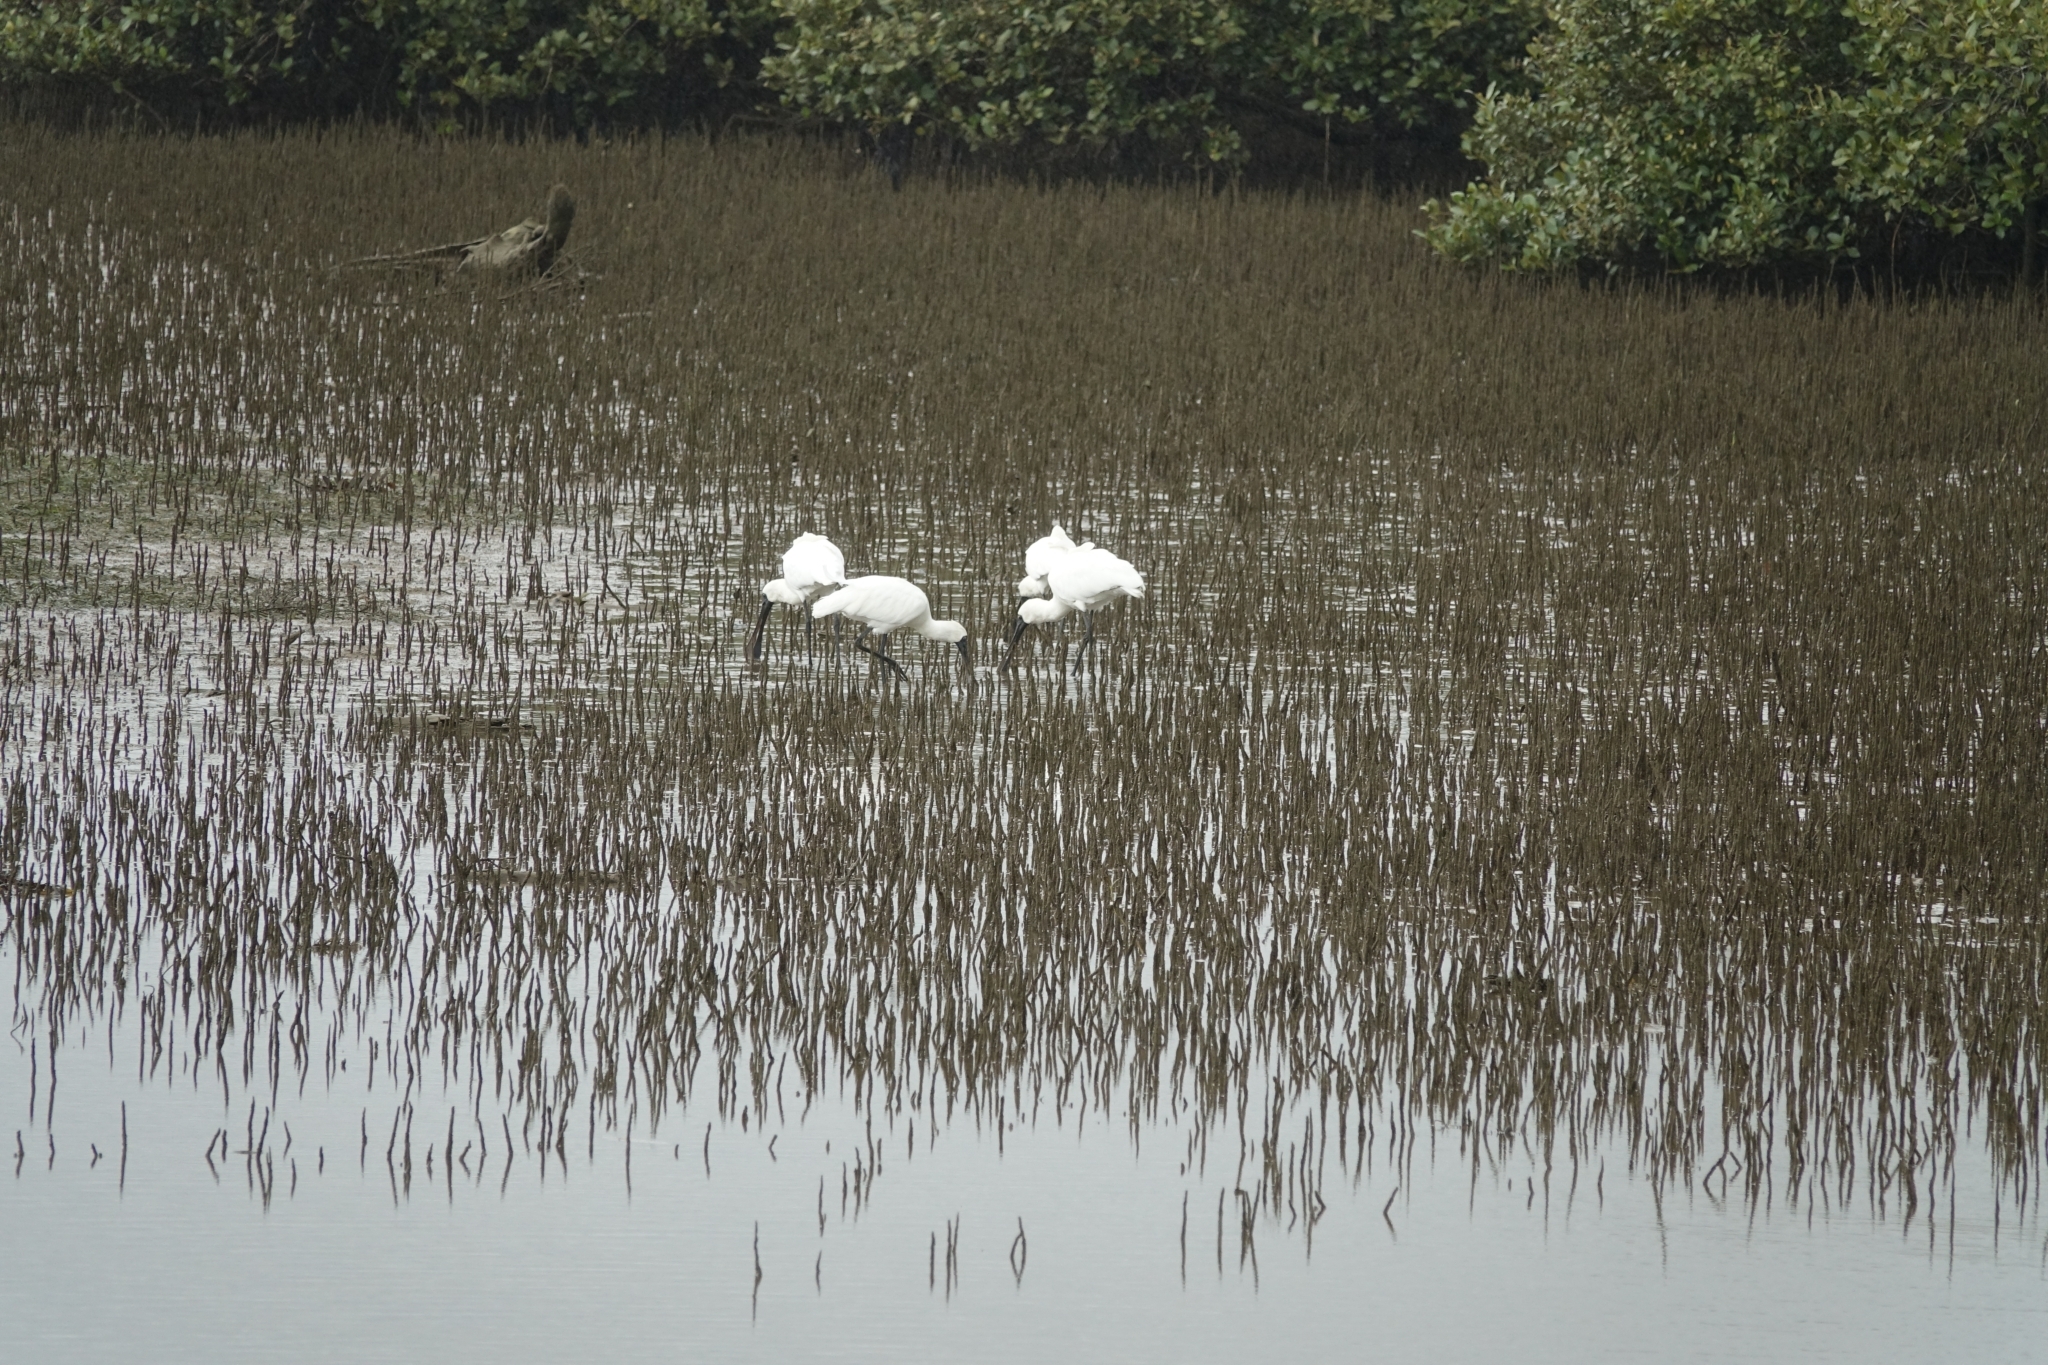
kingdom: Animalia
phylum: Chordata
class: Aves
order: Pelecaniformes
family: Threskiornithidae
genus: Platalea
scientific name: Platalea regia
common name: Royal spoonbill
